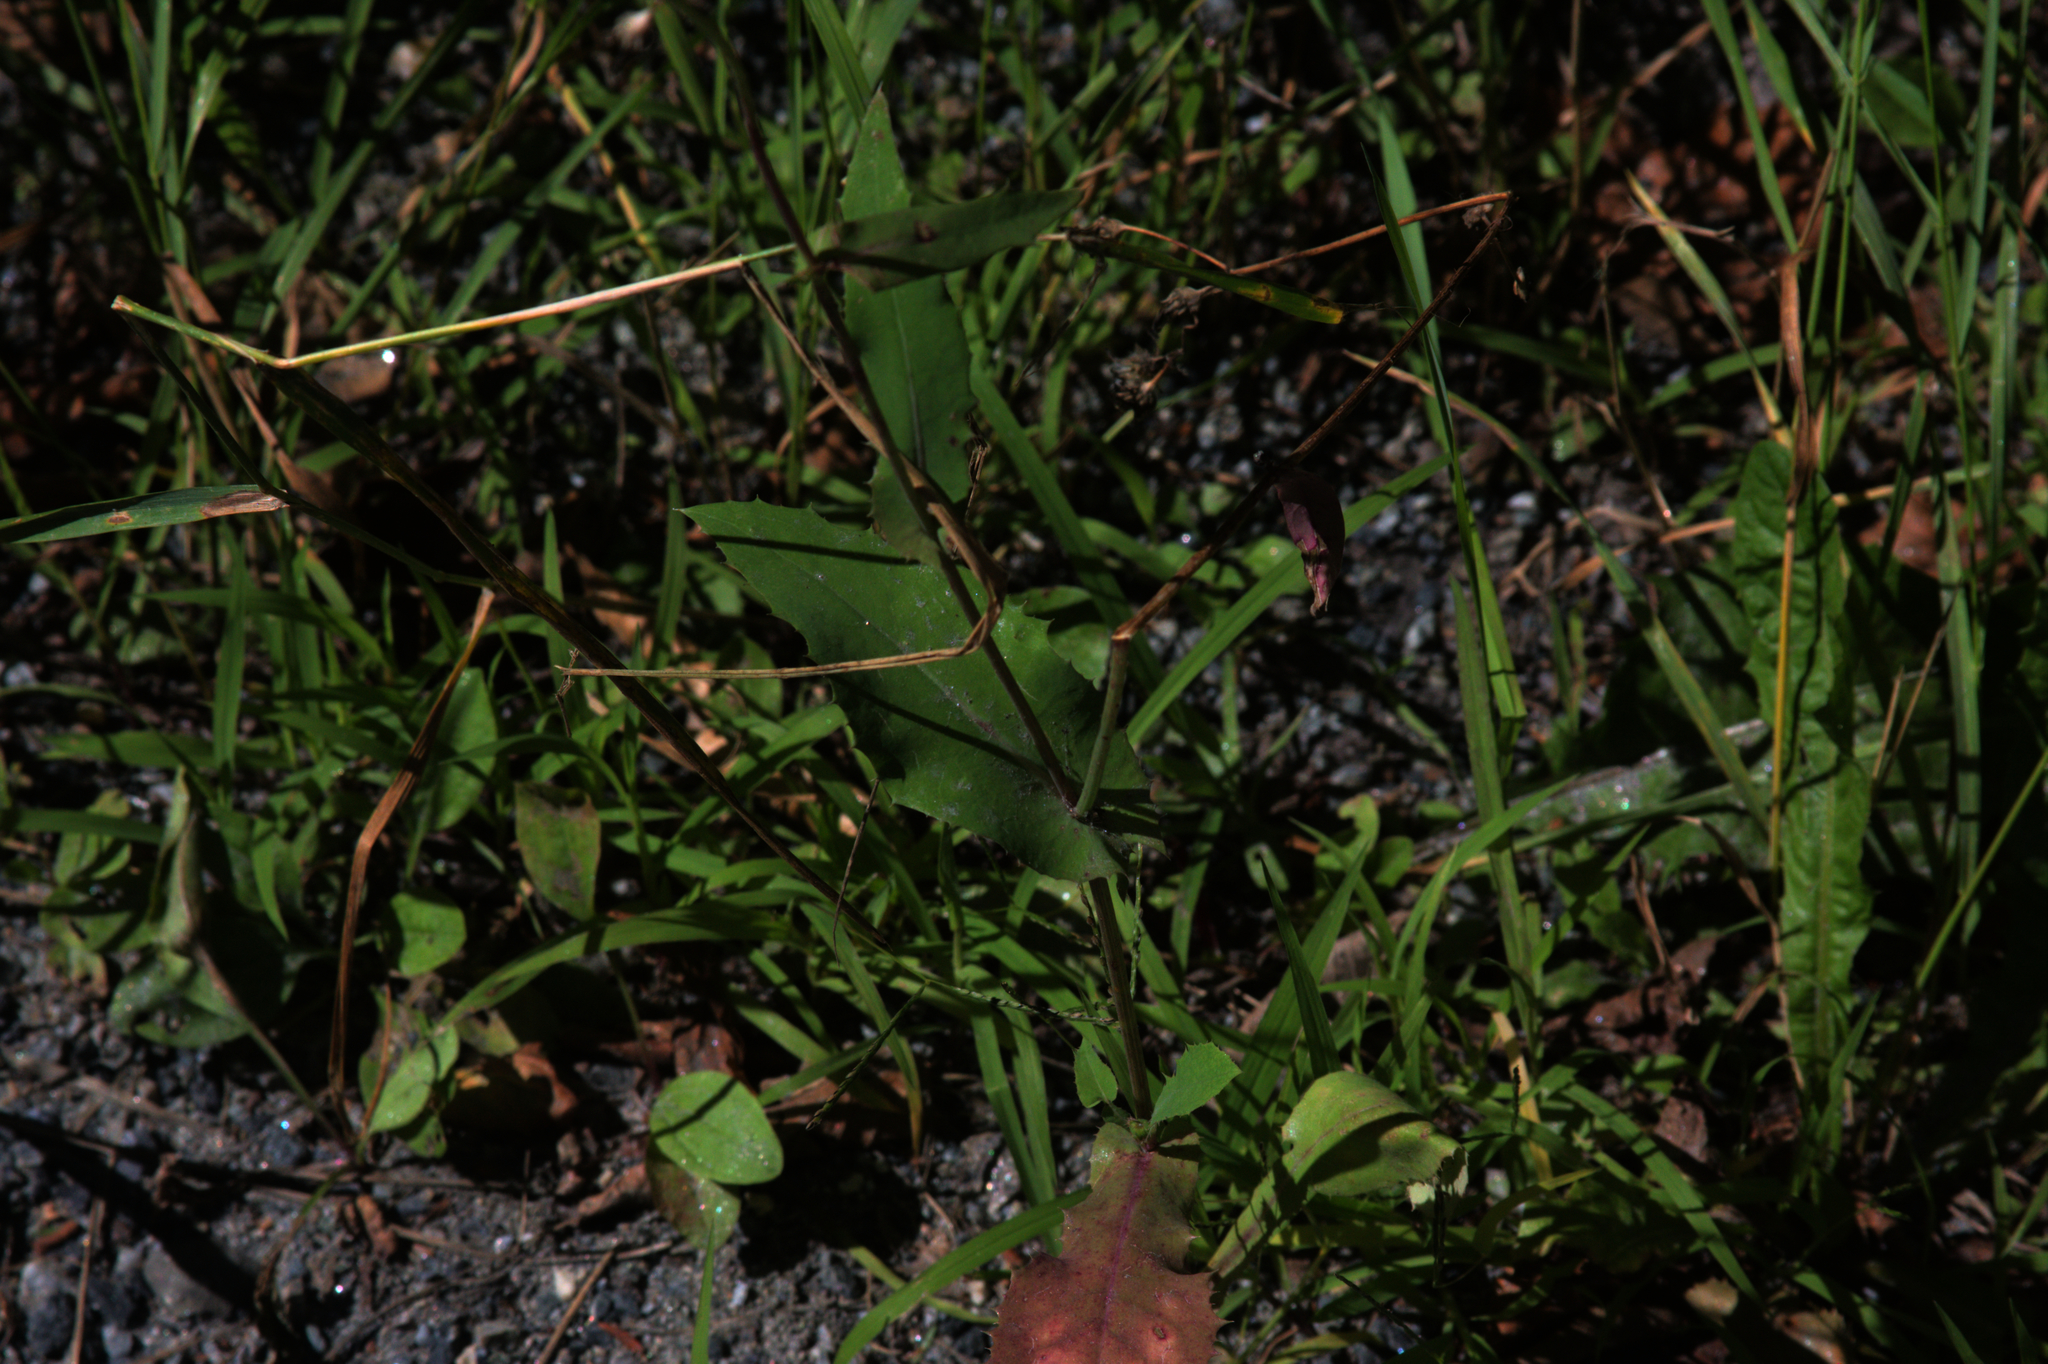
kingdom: Plantae
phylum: Tracheophyta
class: Magnoliopsida
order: Asterales
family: Asteraceae
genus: Sonchus
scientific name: Sonchus oleraceus
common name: Common sowthistle
